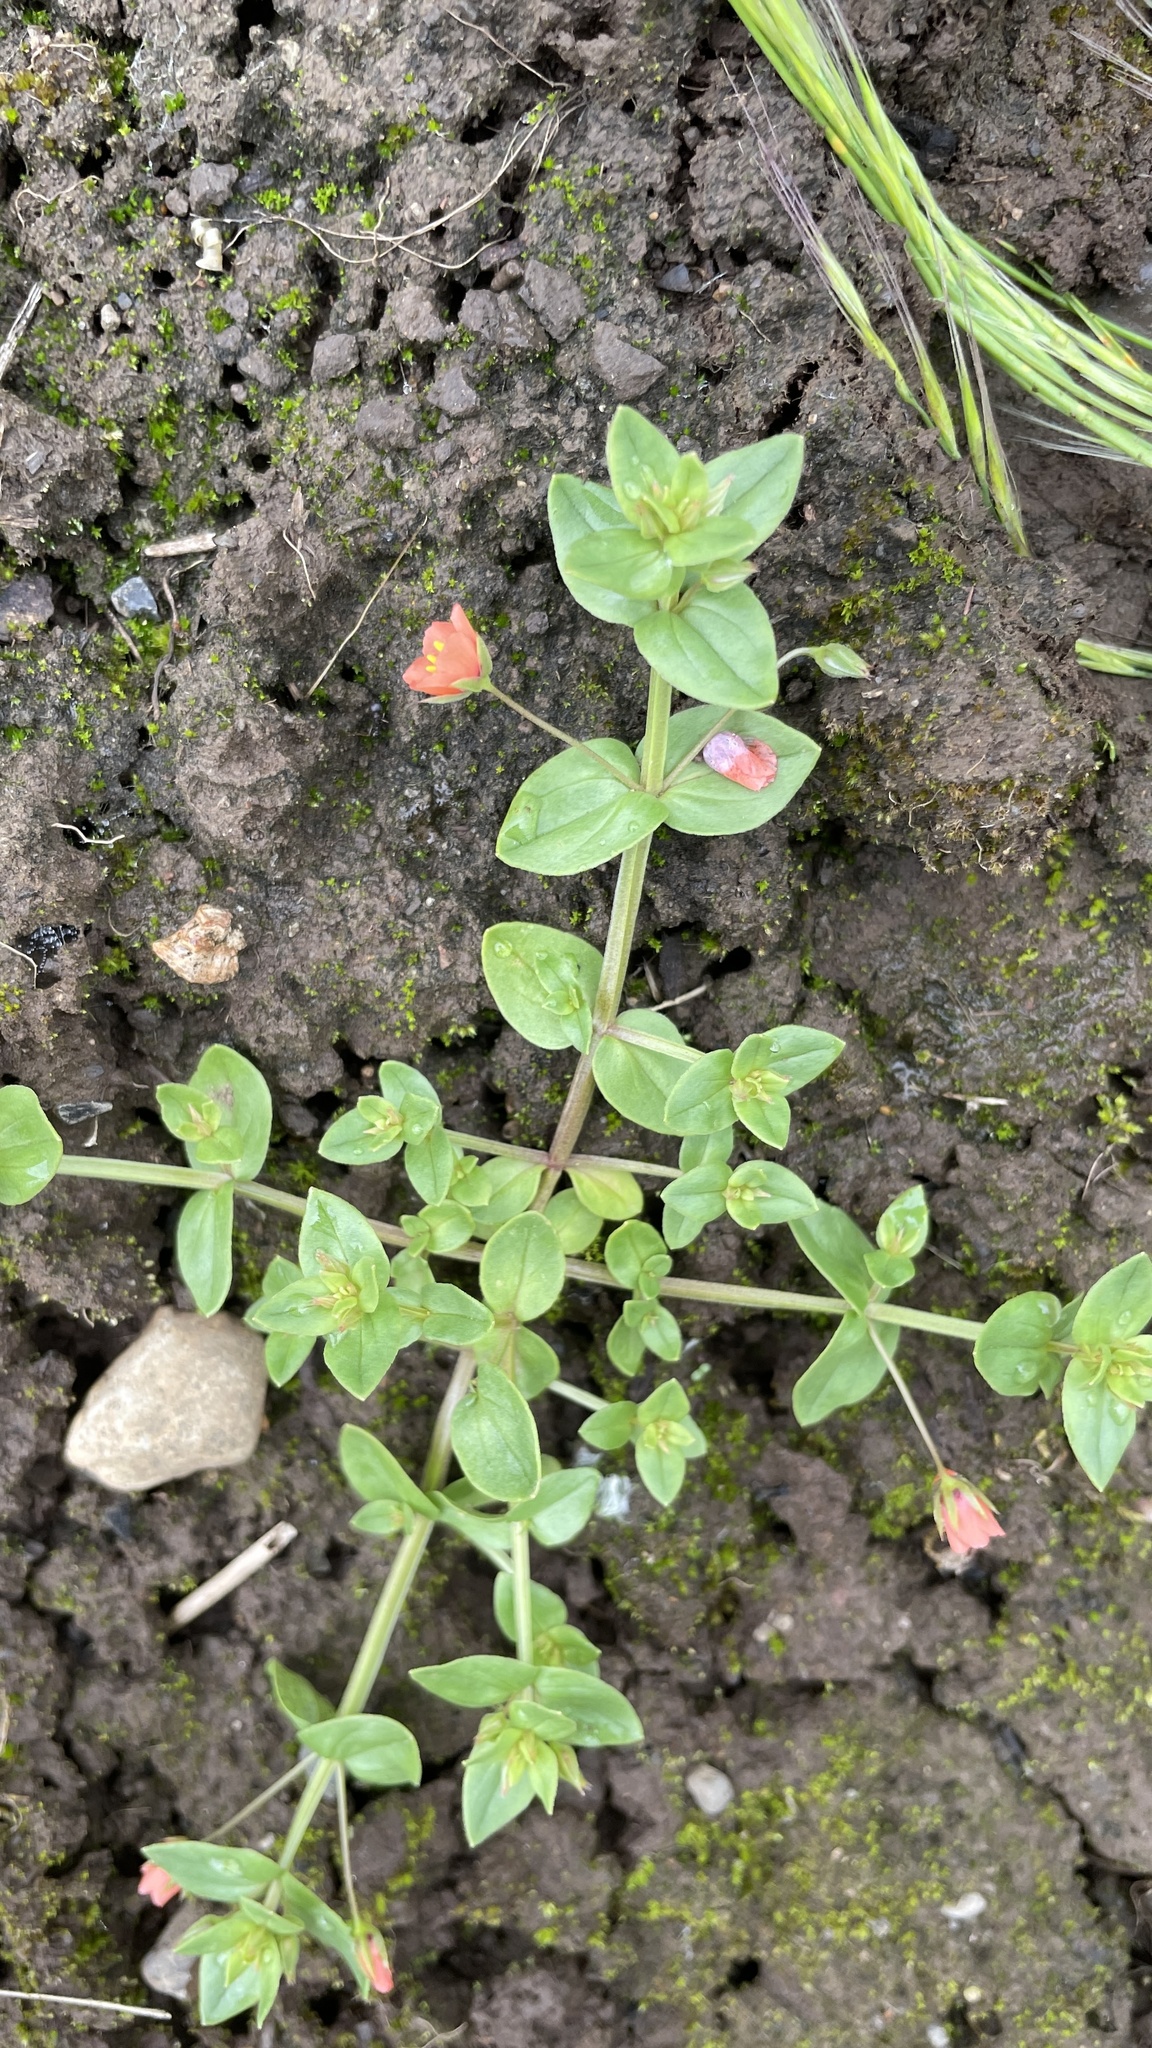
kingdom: Plantae
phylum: Tracheophyta
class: Magnoliopsida
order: Ericales
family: Primulaceae
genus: Lysimachia
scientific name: Lysimachia arvensis
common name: Scarlet pimpernel
